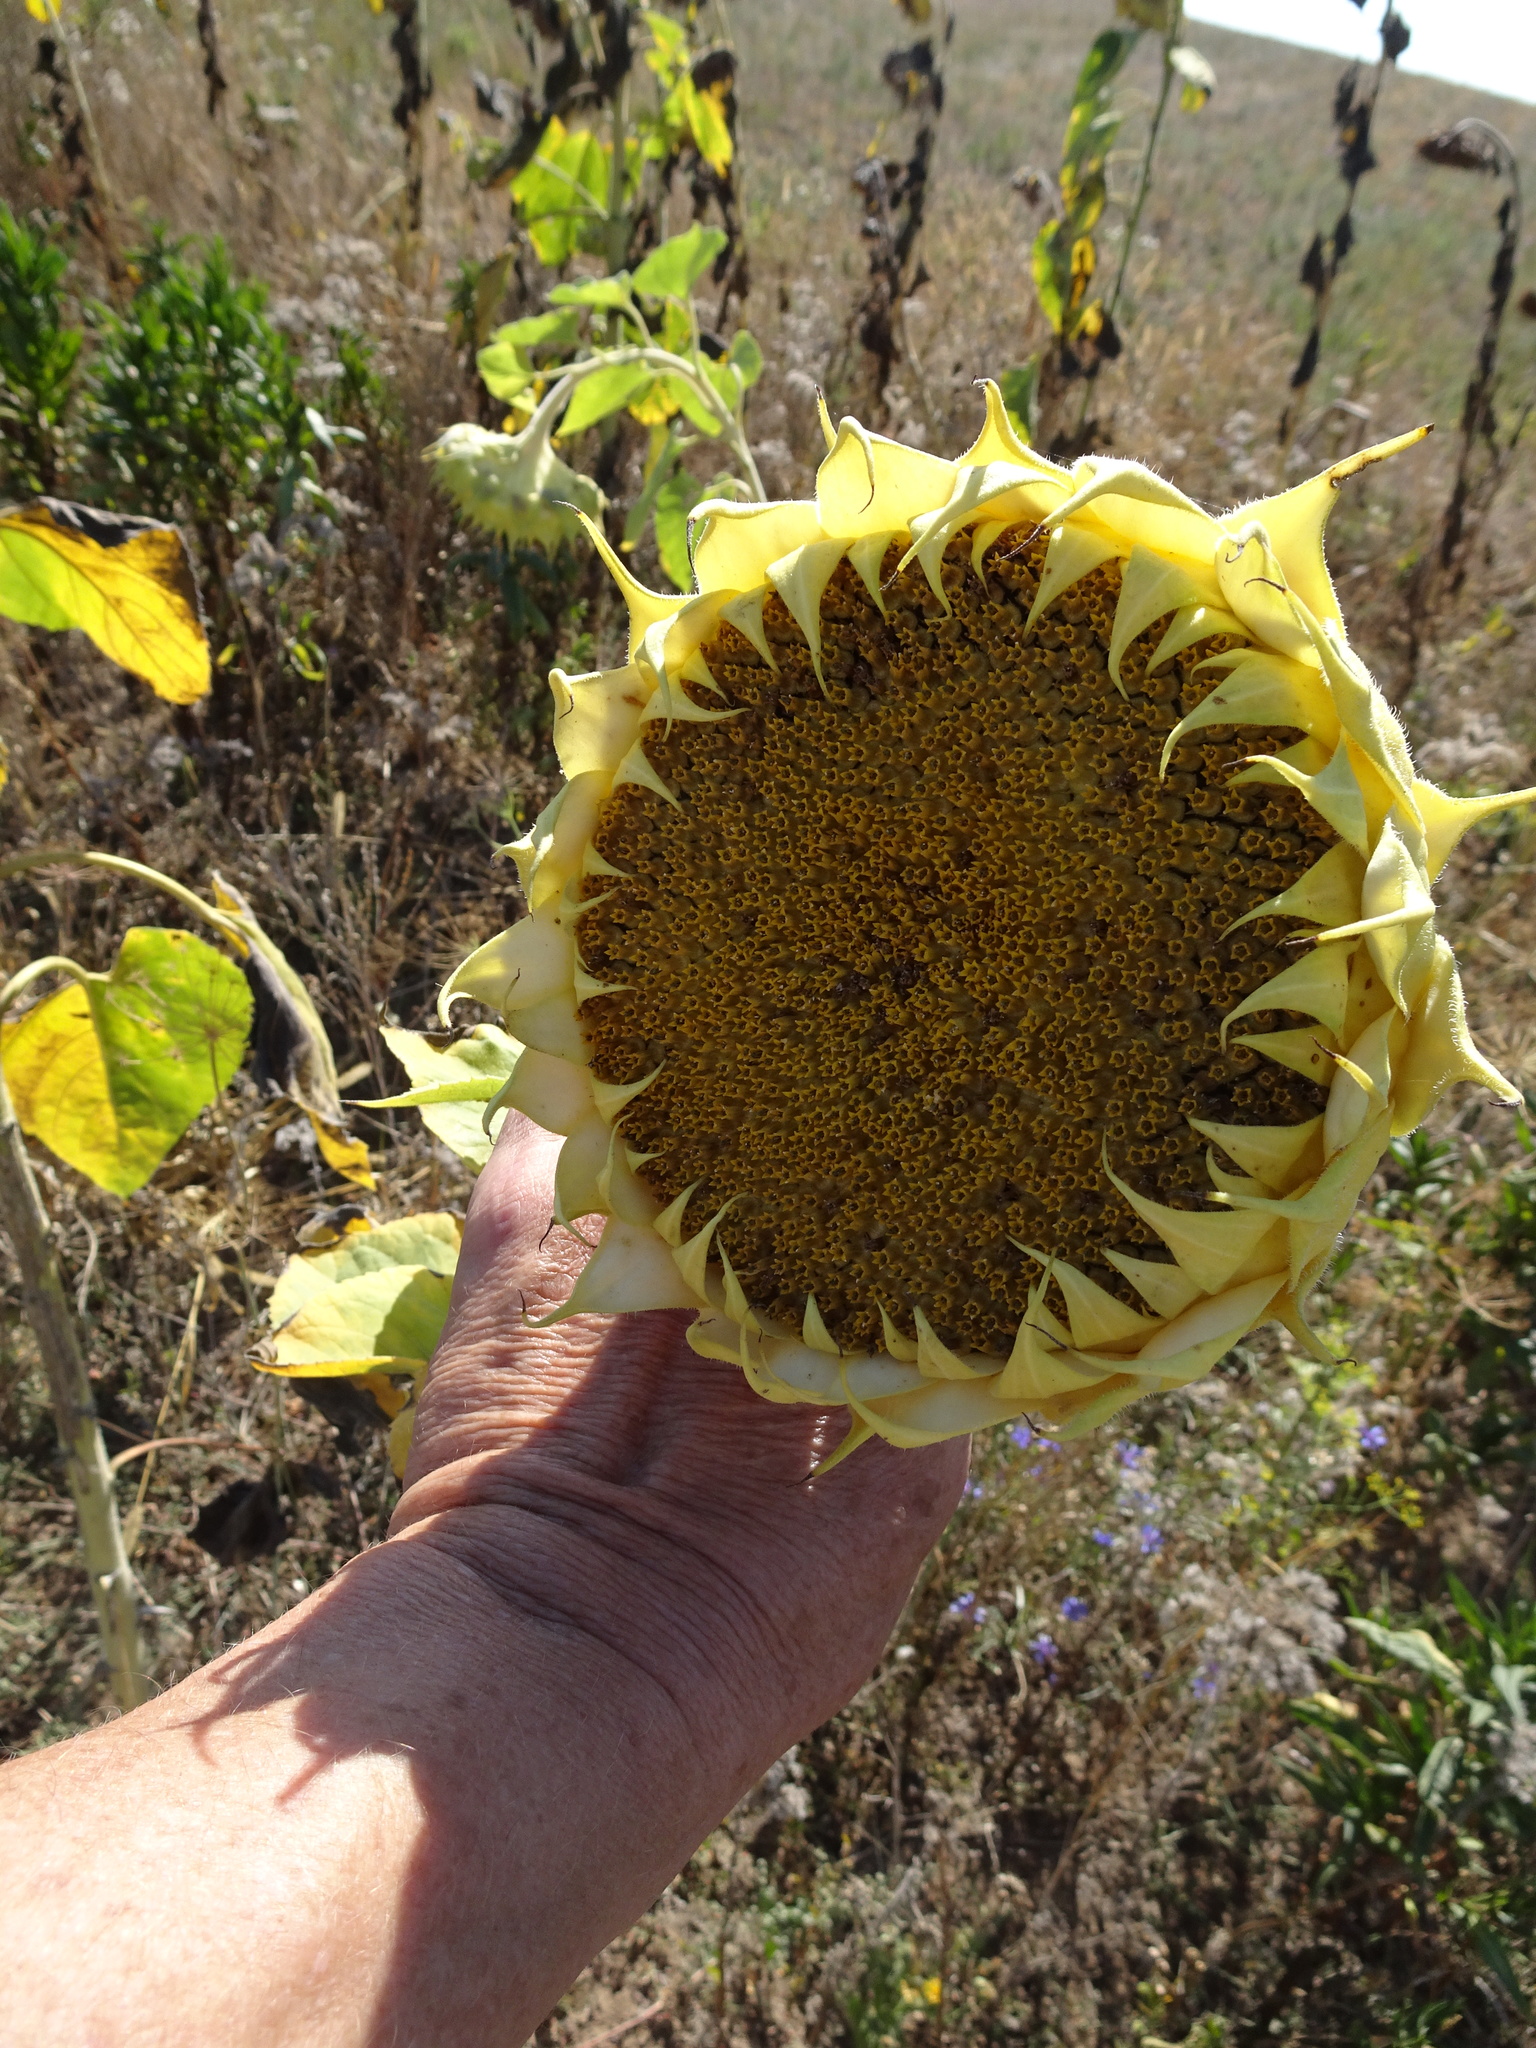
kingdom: Plantae
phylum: Tracheophyta
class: Magnoliopsida
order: Asterales
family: Asteraceae
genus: Helianthus
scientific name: Helianthus annuus
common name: Sunflower
